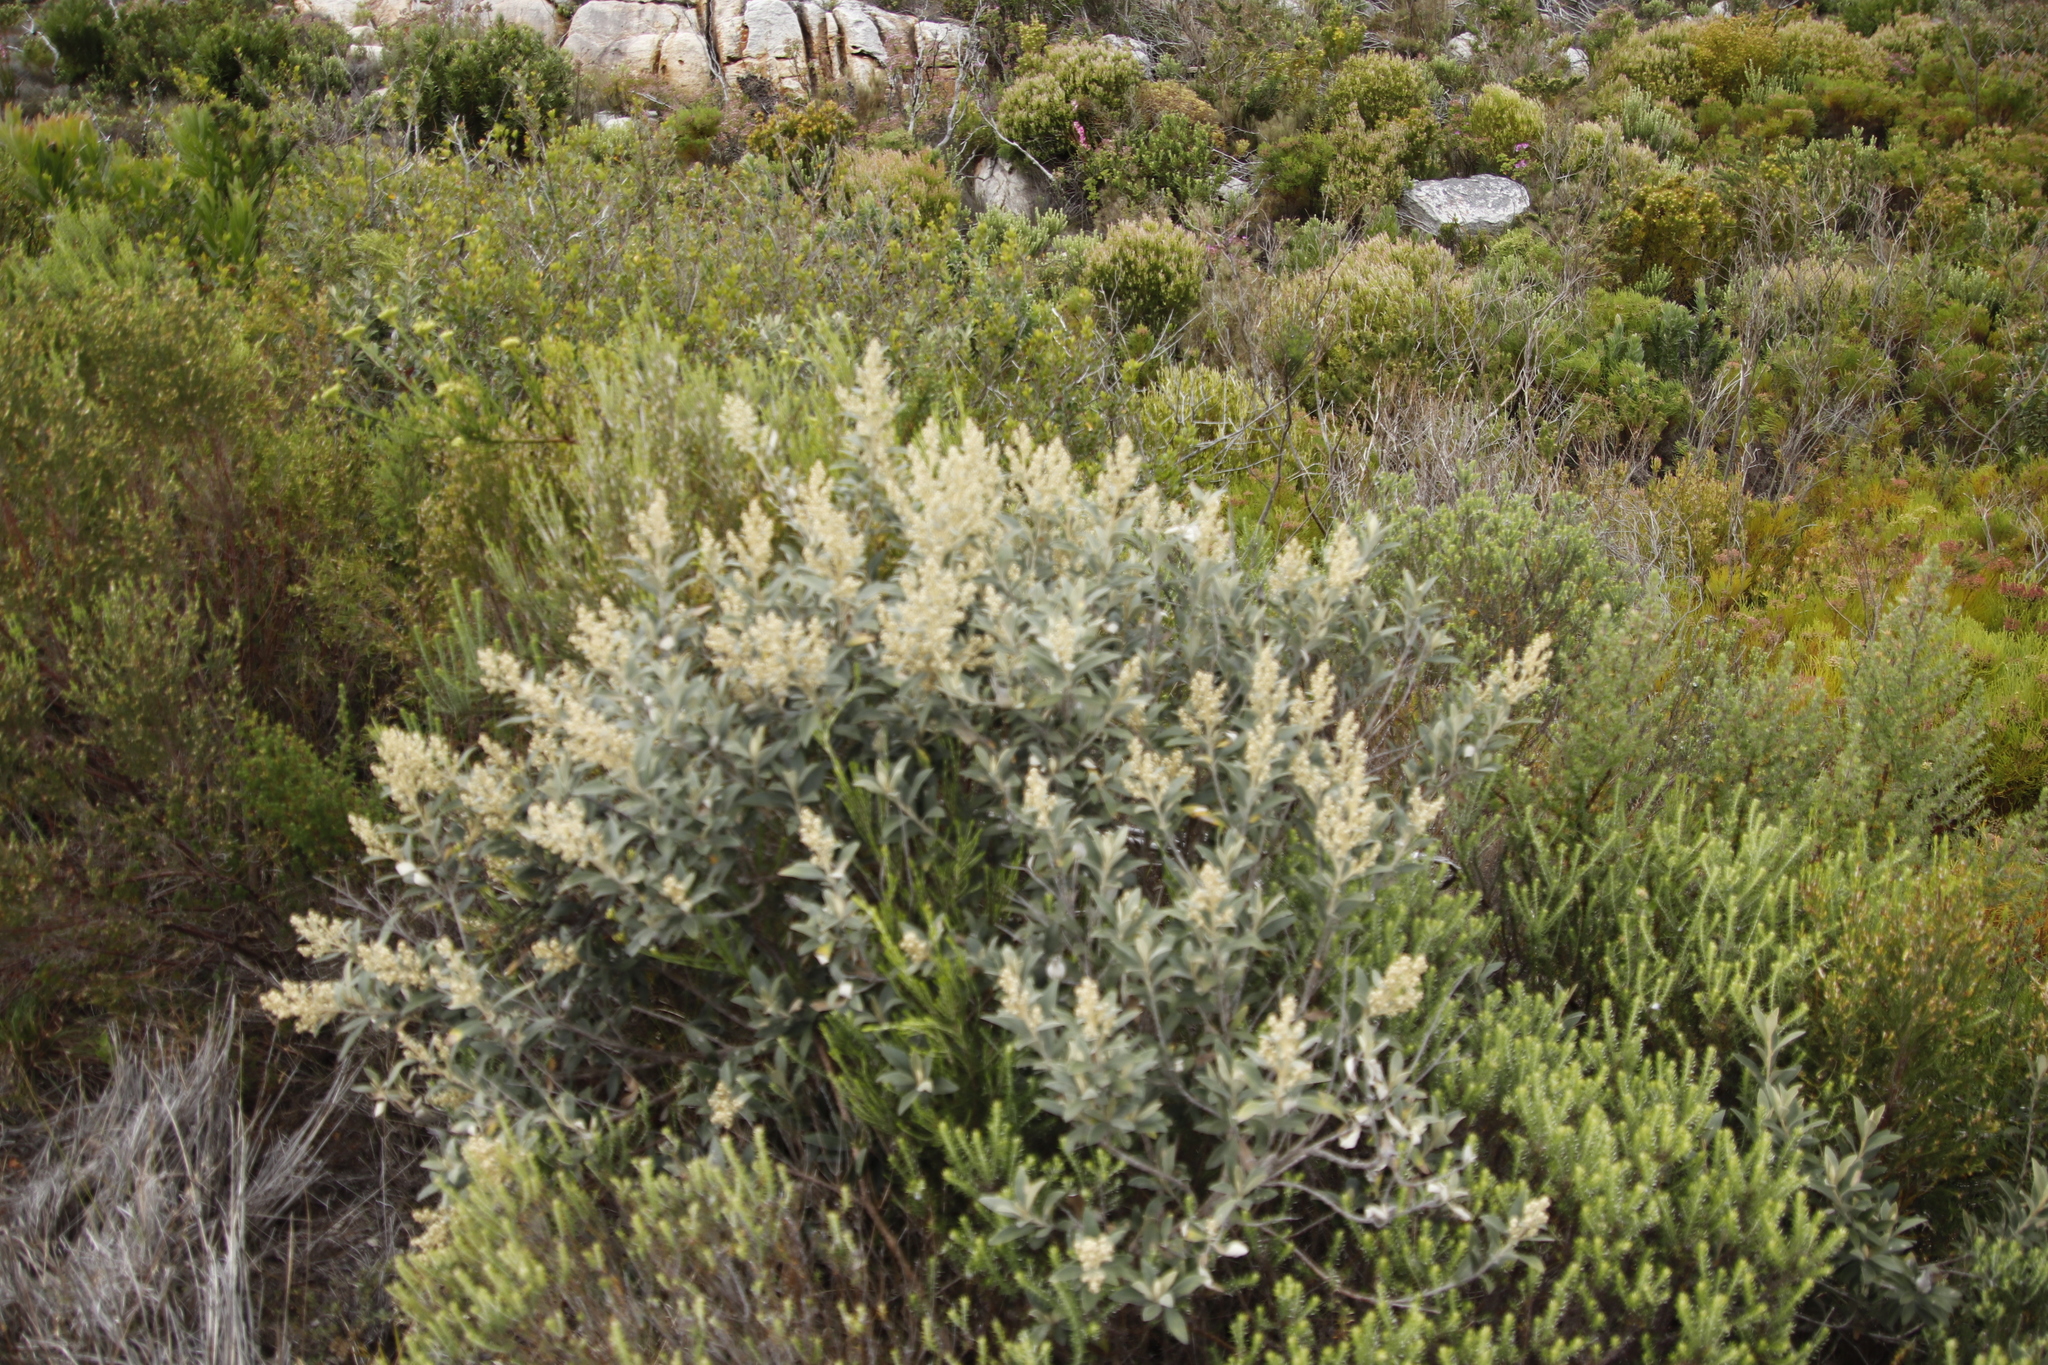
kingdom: Plantae
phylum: Tracheophyta
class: Magnoliopsida
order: Asterales
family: Asteraceae
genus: Tarchonanthus
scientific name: Tarchonanthus littoralis
